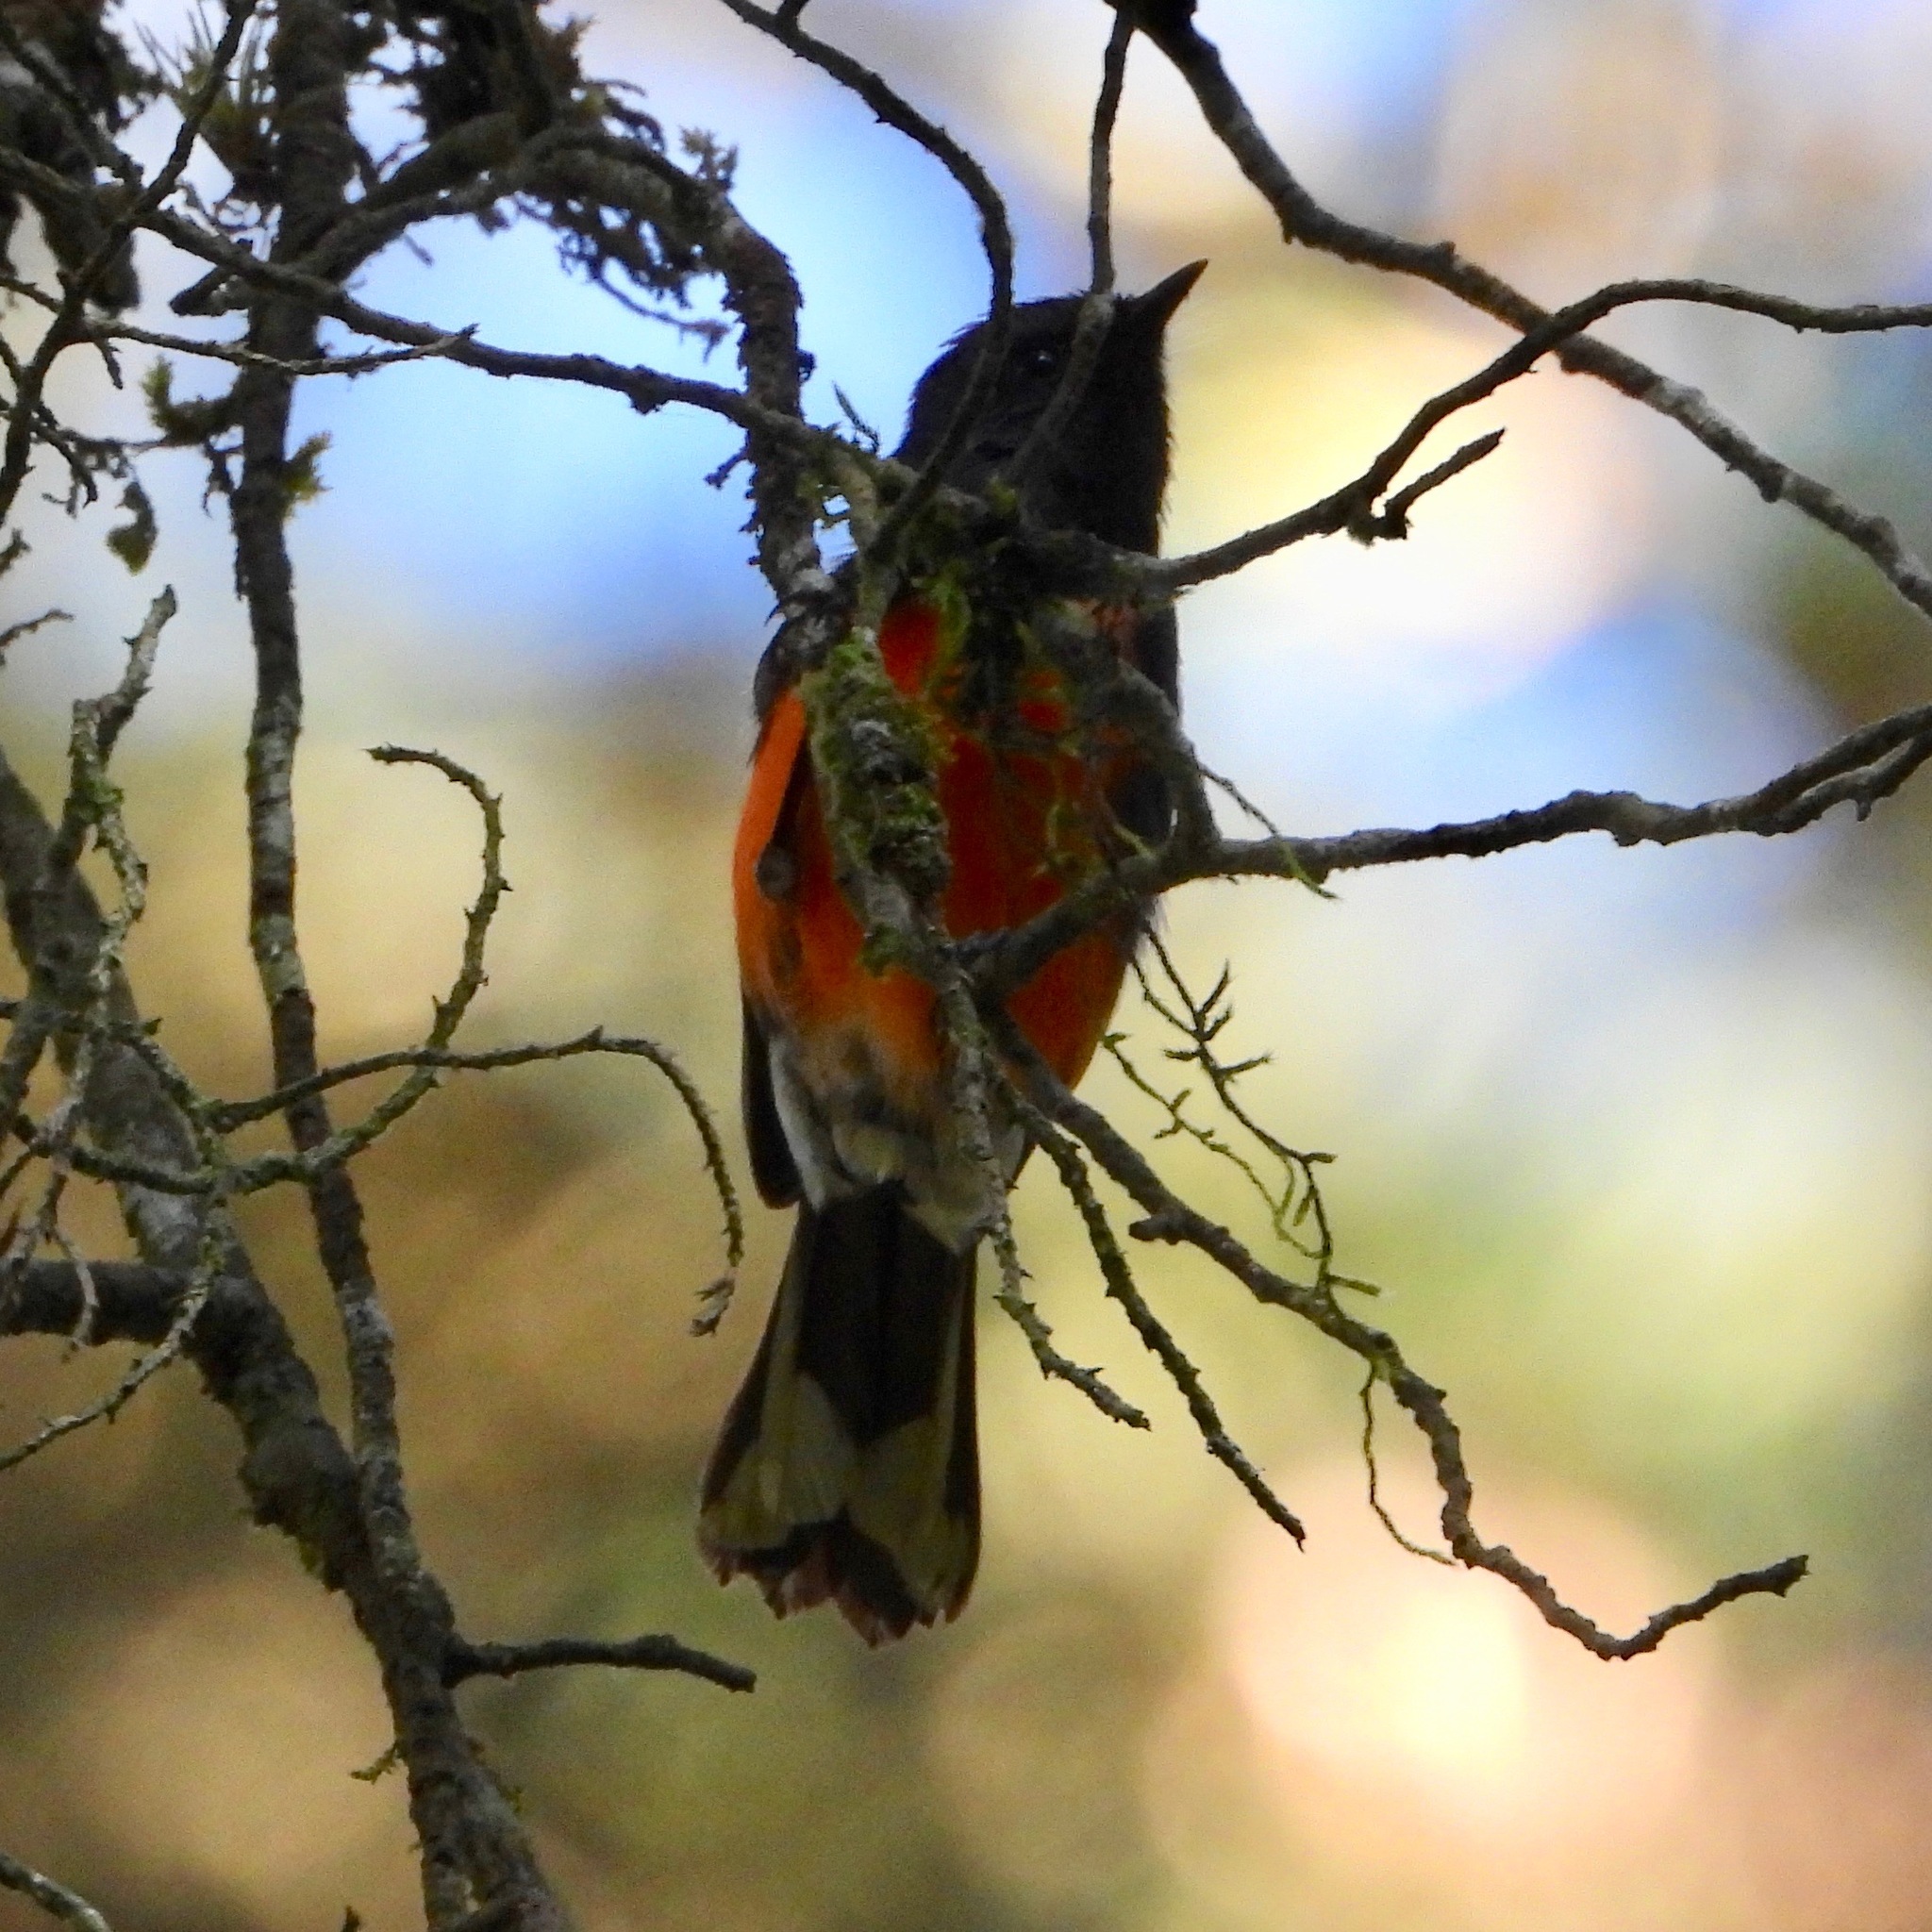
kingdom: Animalia
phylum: Chordata
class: Aves
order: Passeriformes
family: Parulidae
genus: Myioborus
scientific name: Myioborus miniatus
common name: Slate-throated redstart
